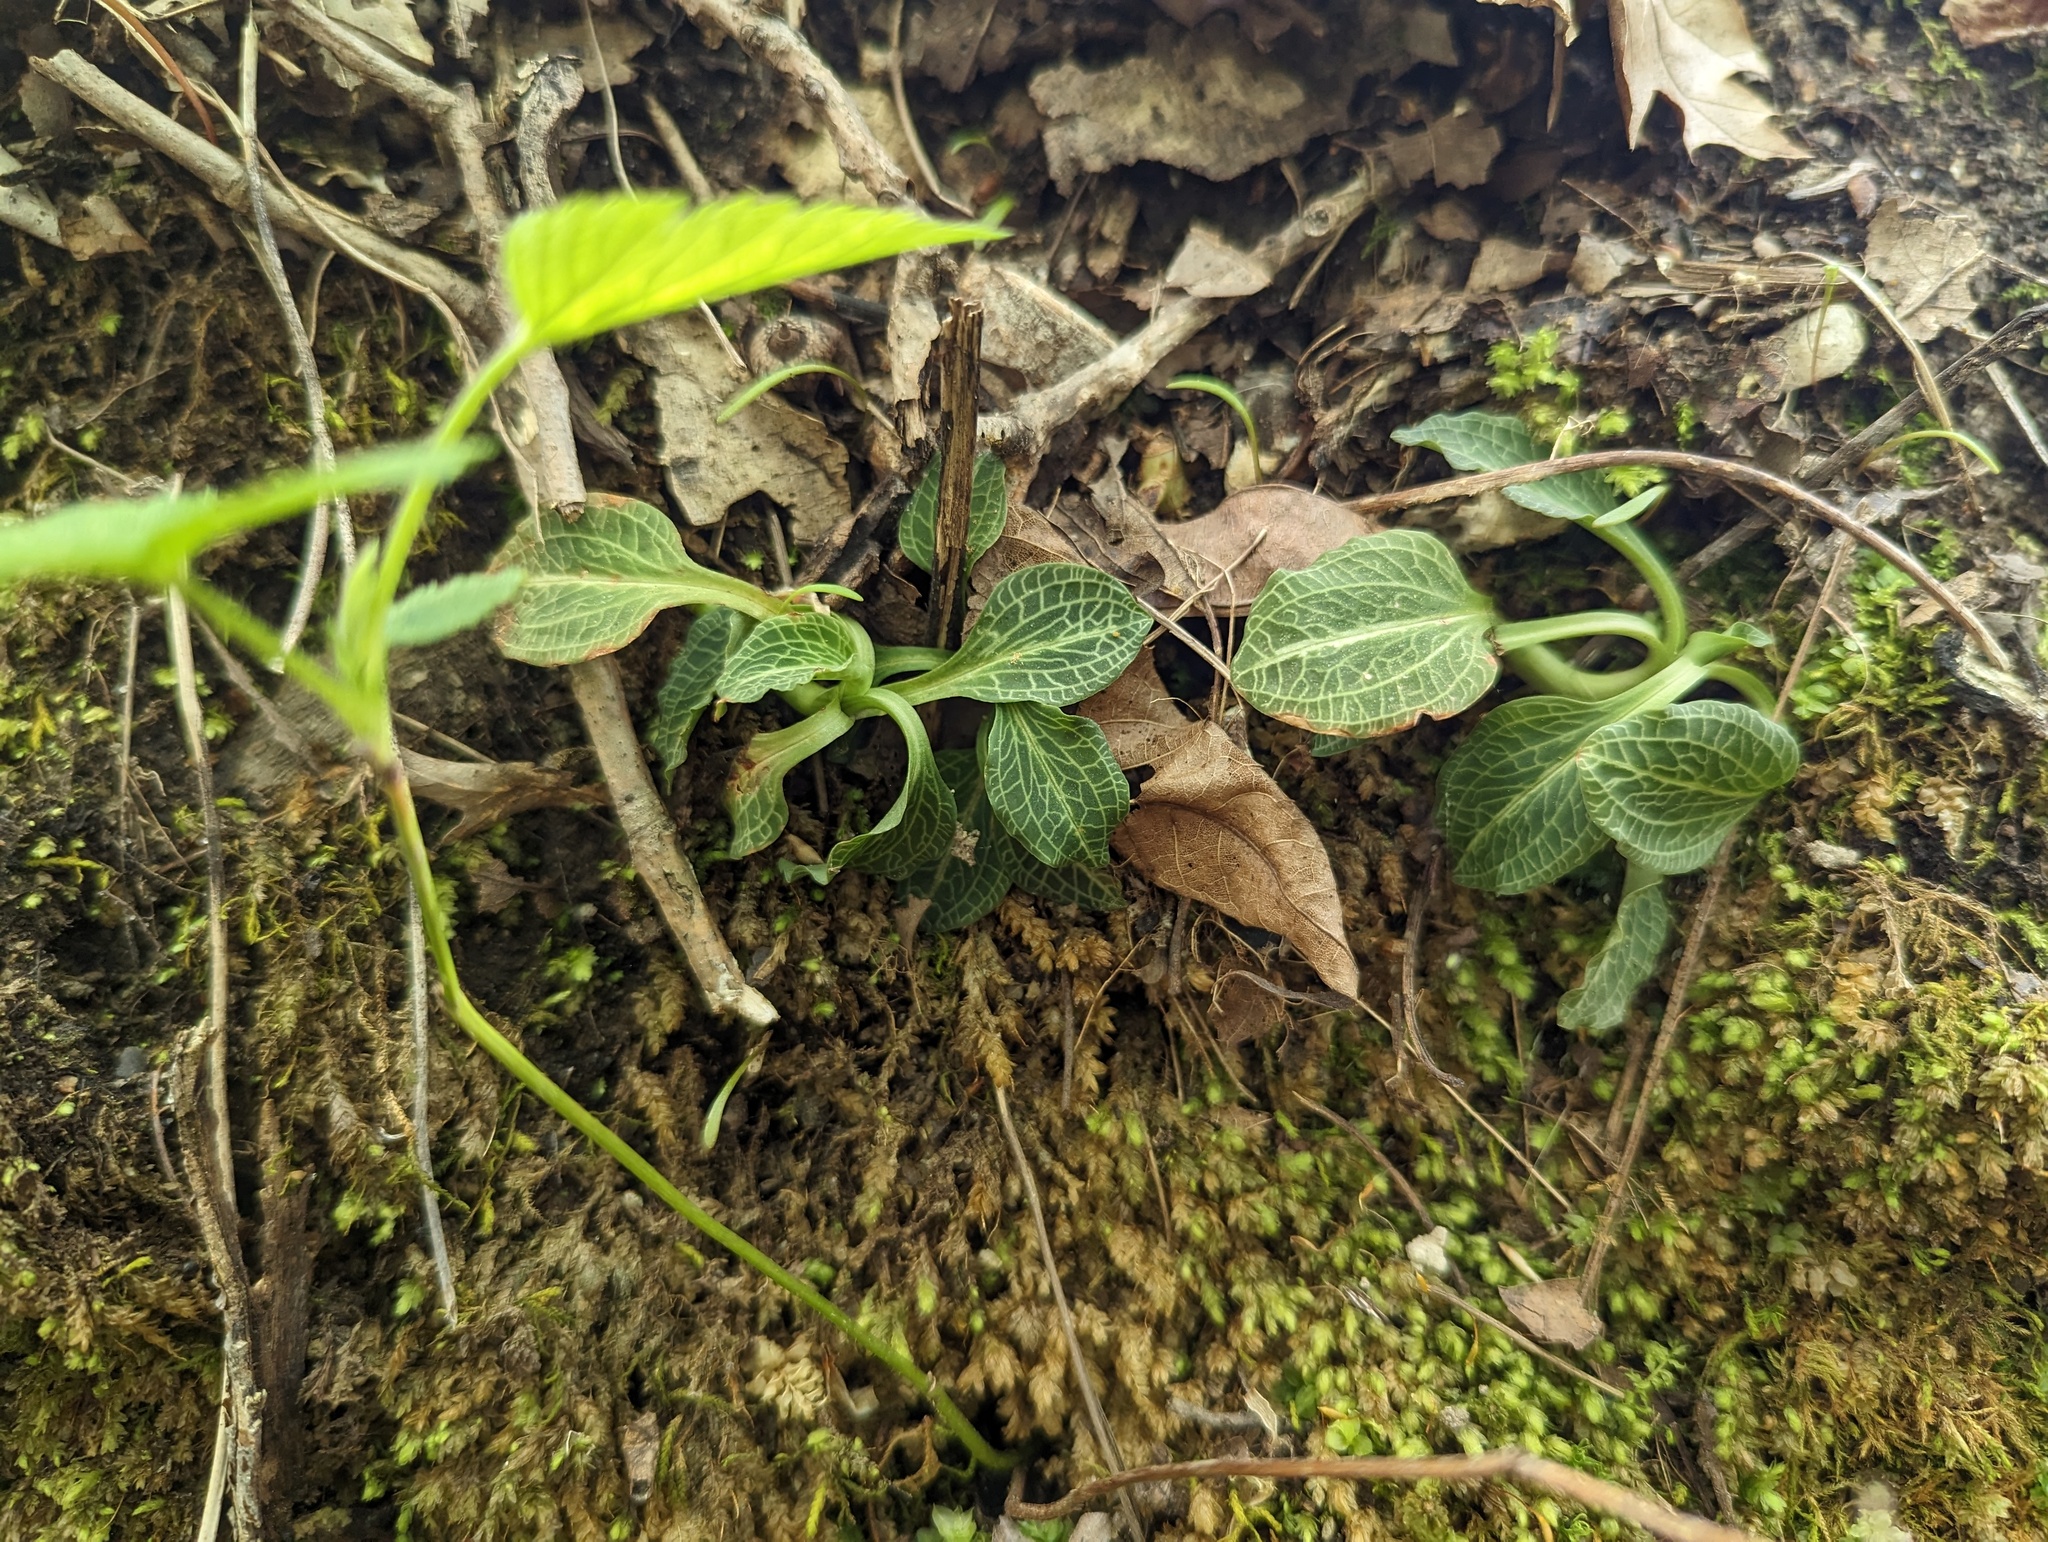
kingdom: Plantae
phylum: Tracheophyta
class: Liliopsida
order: Asparagales
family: Orchidaceae
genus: Goodyera
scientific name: Goodyera pubescens
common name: Downy rattlesnake-plantain
